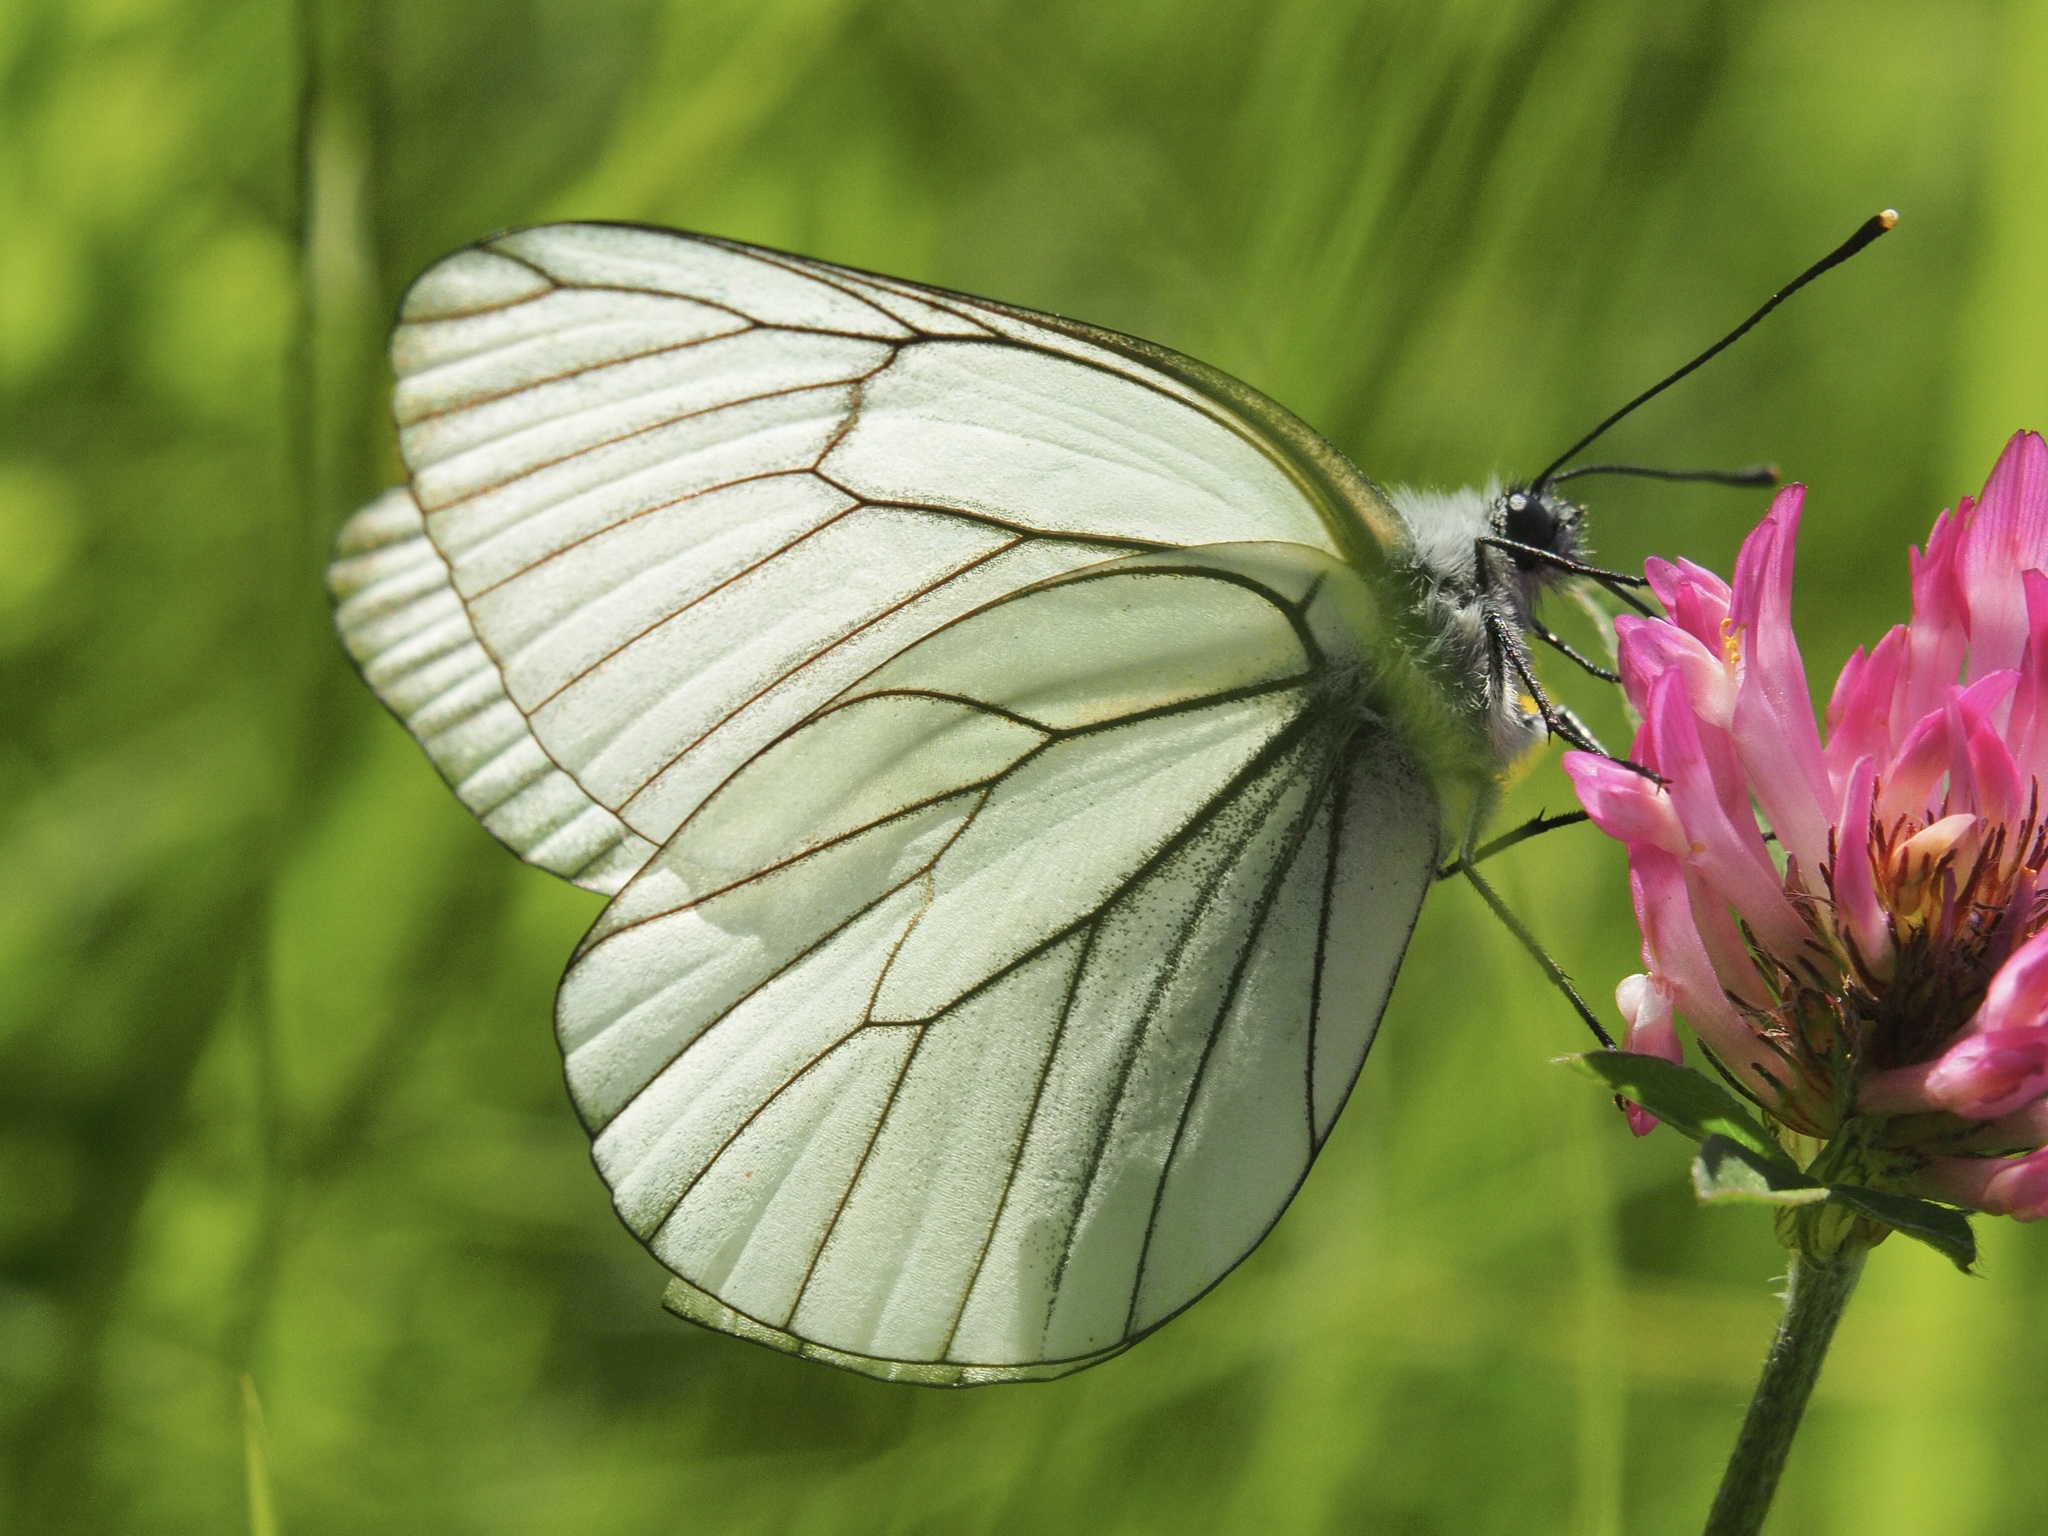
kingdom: Animalia
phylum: Arthropoda
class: Insecta
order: Lepidoptera
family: Pieridae
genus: Aporia
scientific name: Aporia crataegi
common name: Black-veined white
